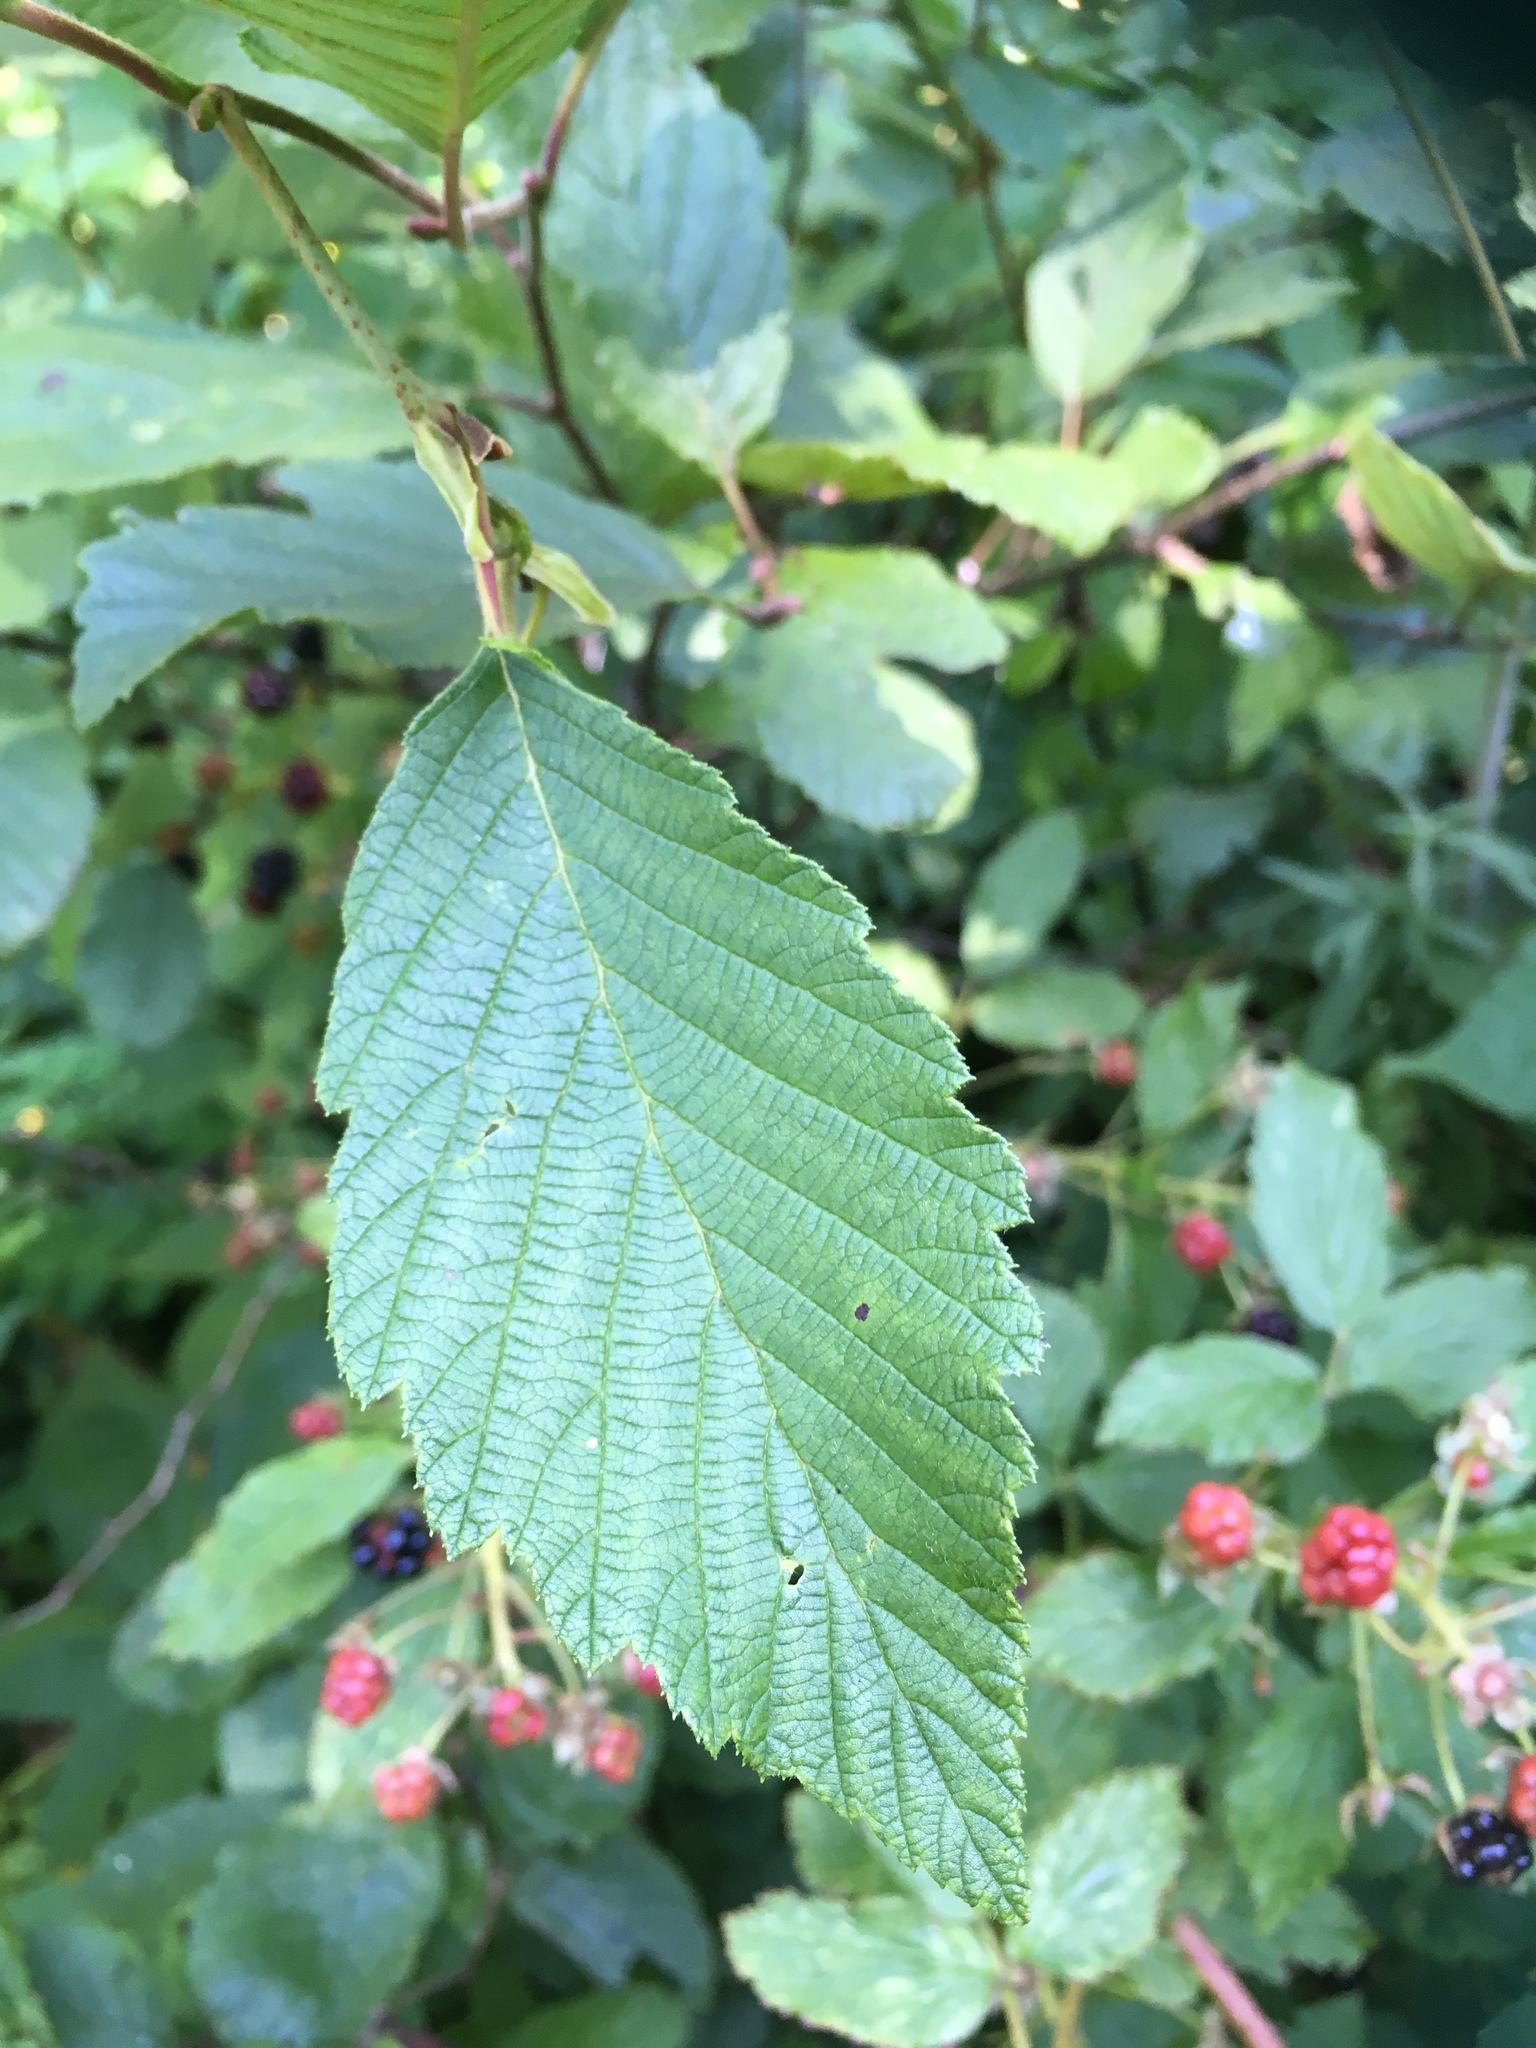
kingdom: Plantae
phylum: Tracheophyta
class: Magnoliopsida
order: Fagales
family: Betulaceae
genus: Alnus
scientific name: Alnus incana
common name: Grey alder
